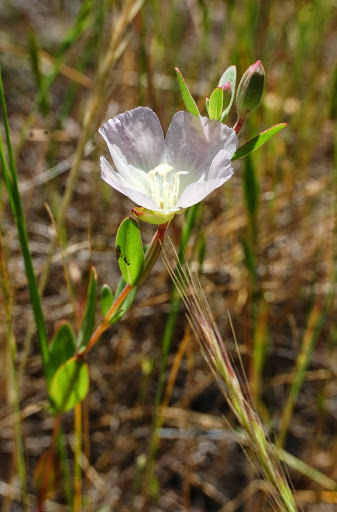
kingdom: Plantae
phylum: Tracheophyta
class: Magnoliopsida
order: Myrtales
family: Onagraceae
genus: Clarkia
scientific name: Clarkia davyi
